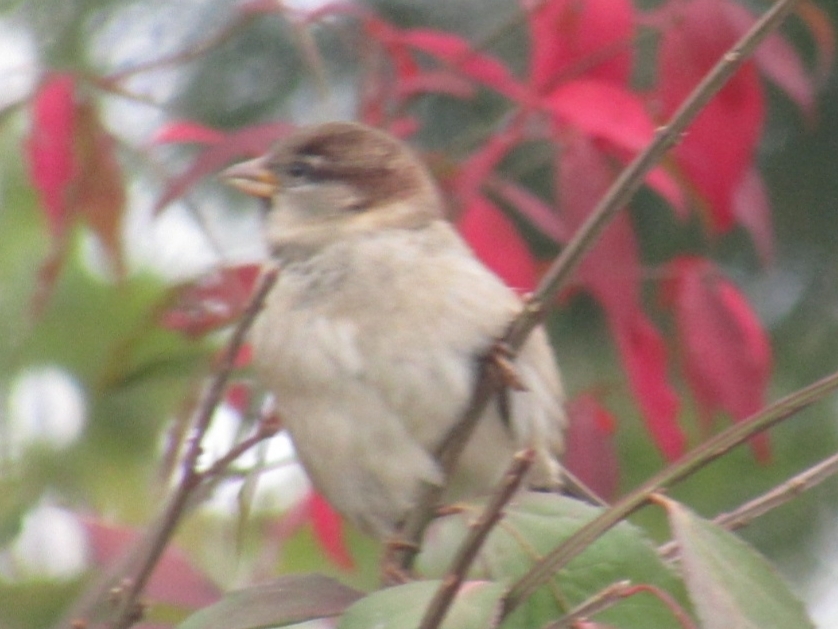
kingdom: Animalia
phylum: Chordata
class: Aves
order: Passeriformes
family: Passeridae
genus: Passer
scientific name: Passer domesticus
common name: House sparrow
